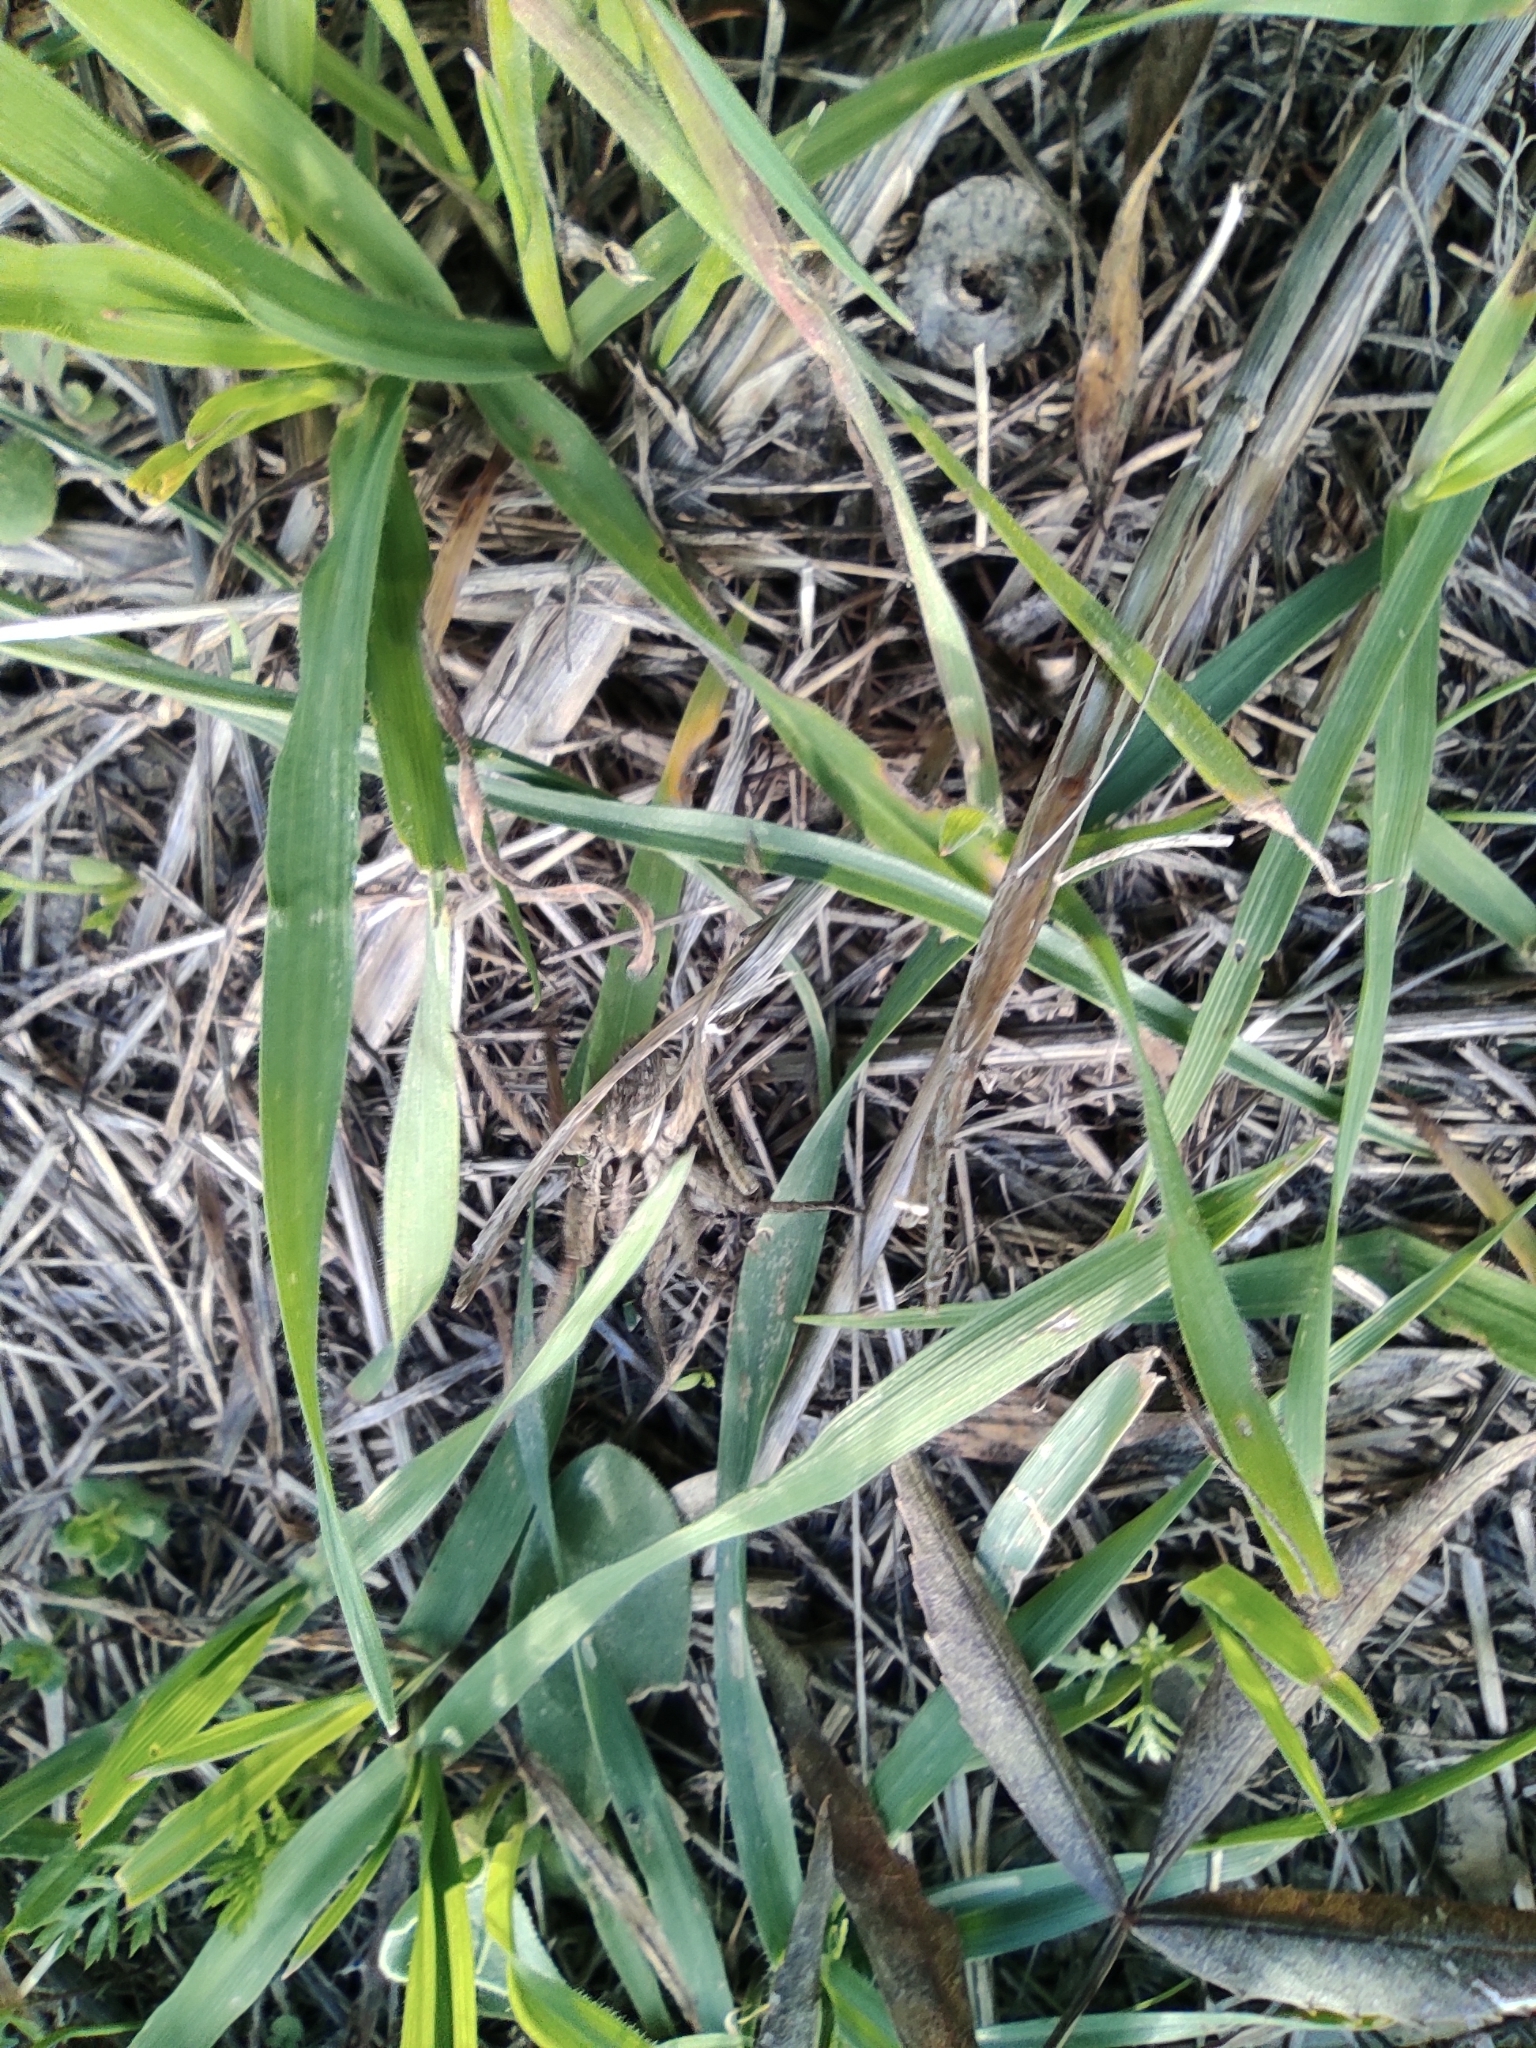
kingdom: Animalia
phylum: Arthropoda
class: Arachnida
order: Araneae
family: Lycosidae
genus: Hogna
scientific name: Hogna radiata
